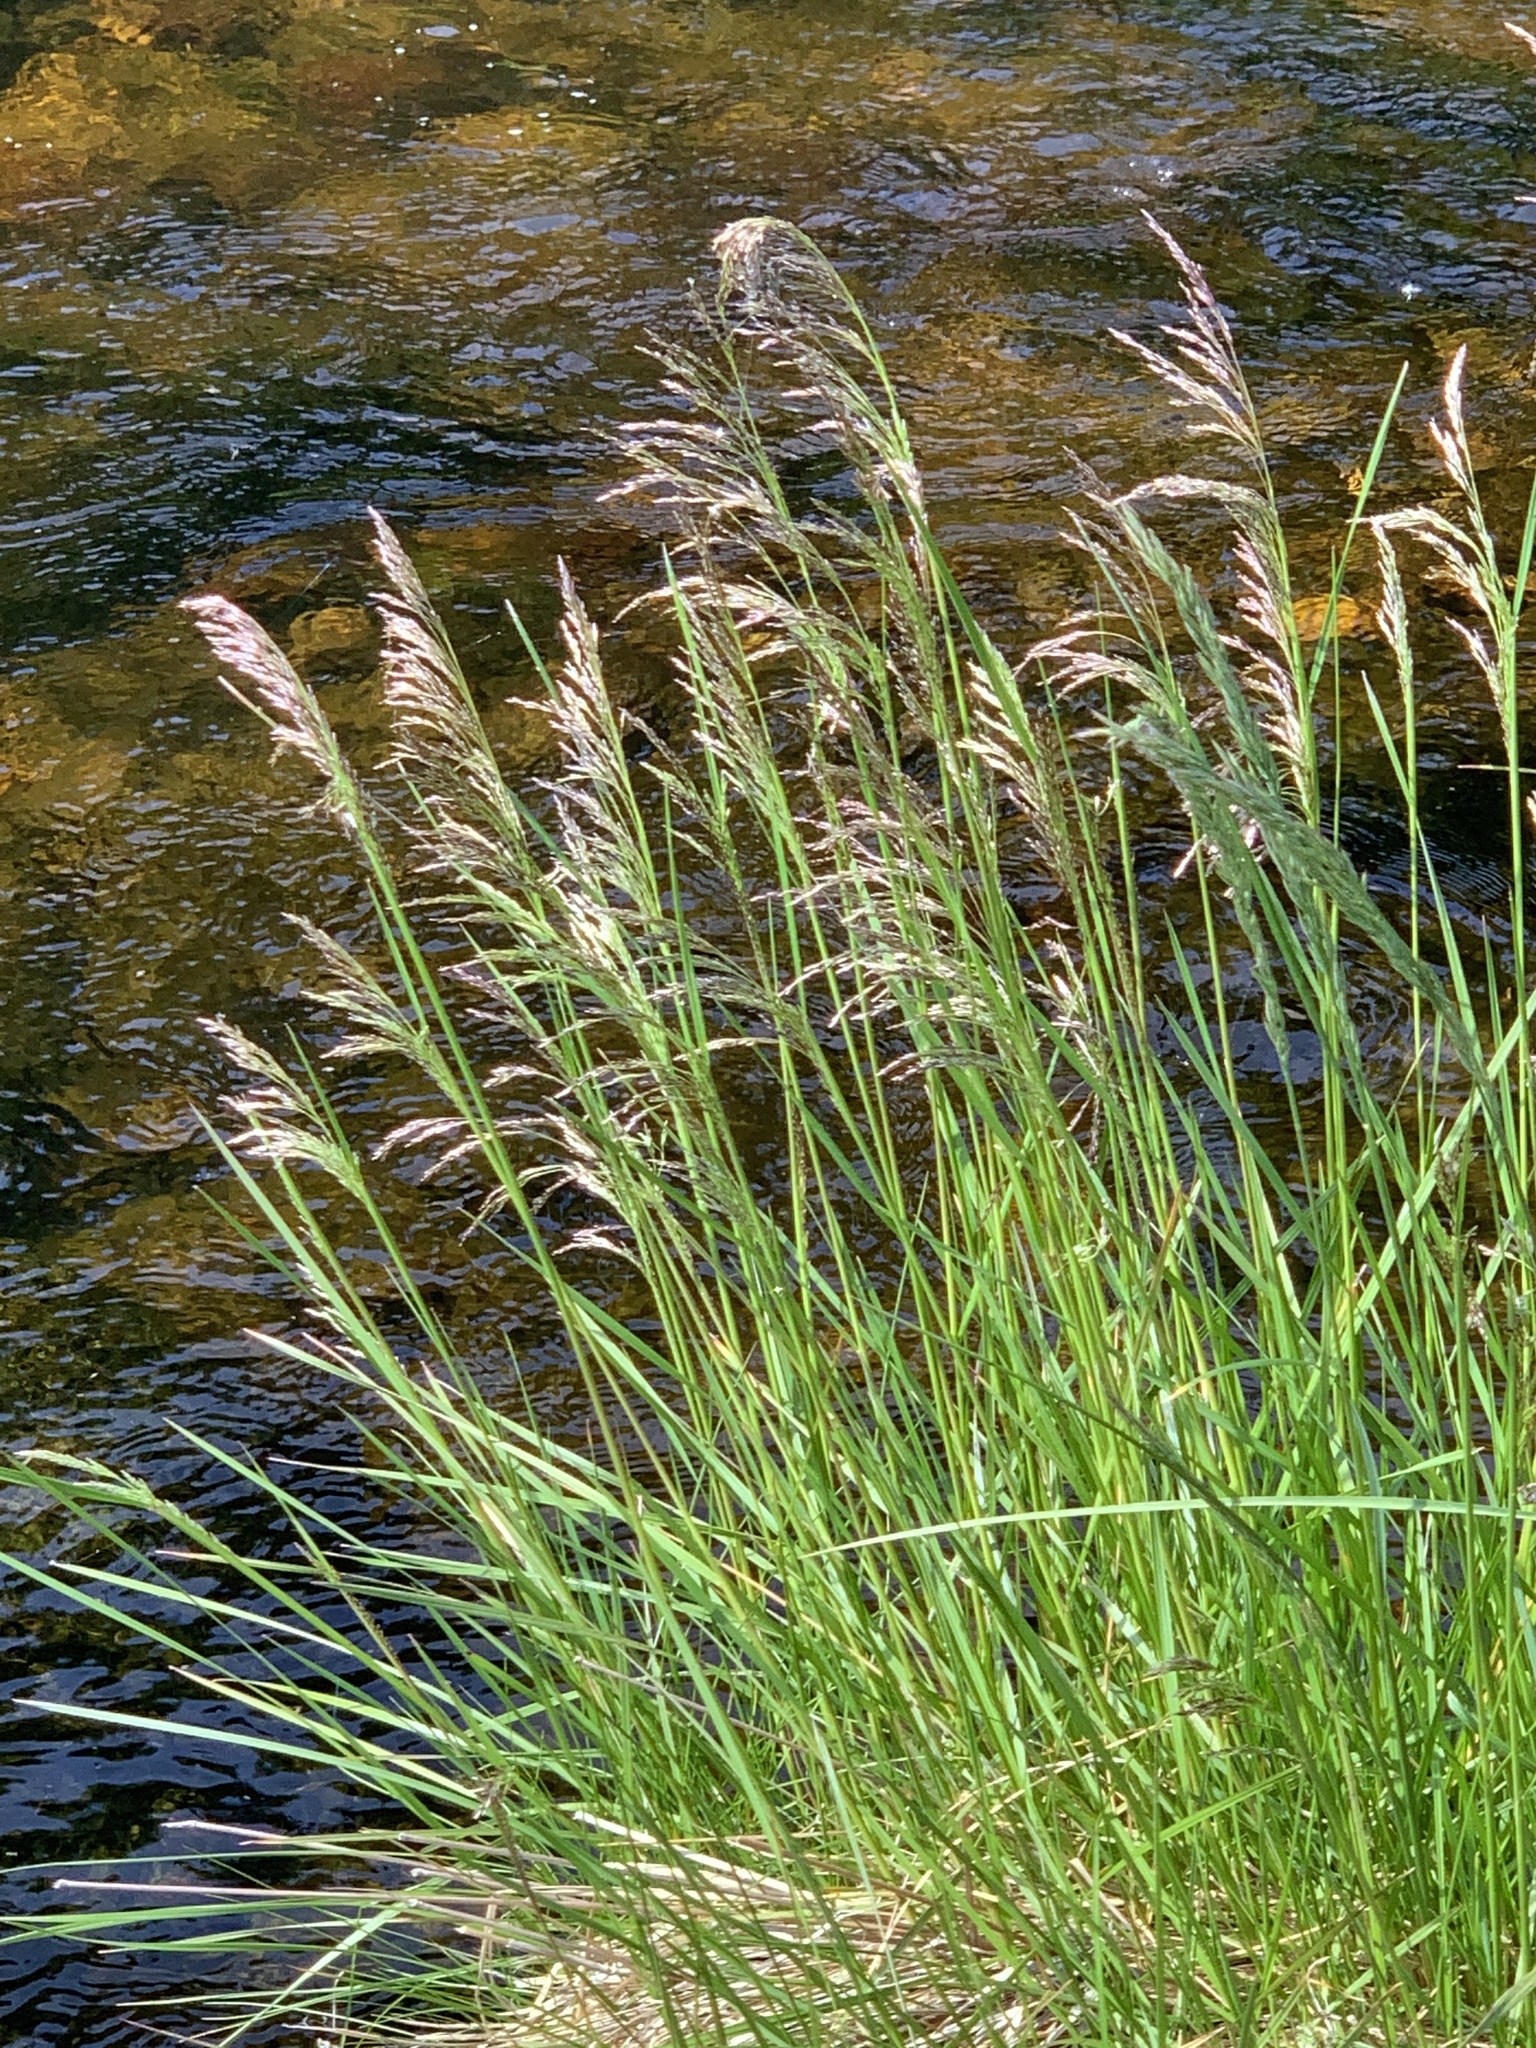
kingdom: Plantae
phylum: Tracheophyta
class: Liliopsida
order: Poales
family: Poaceae
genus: Deschampsia
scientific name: Deschampsia cespitosa
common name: Tufted hair-grass
